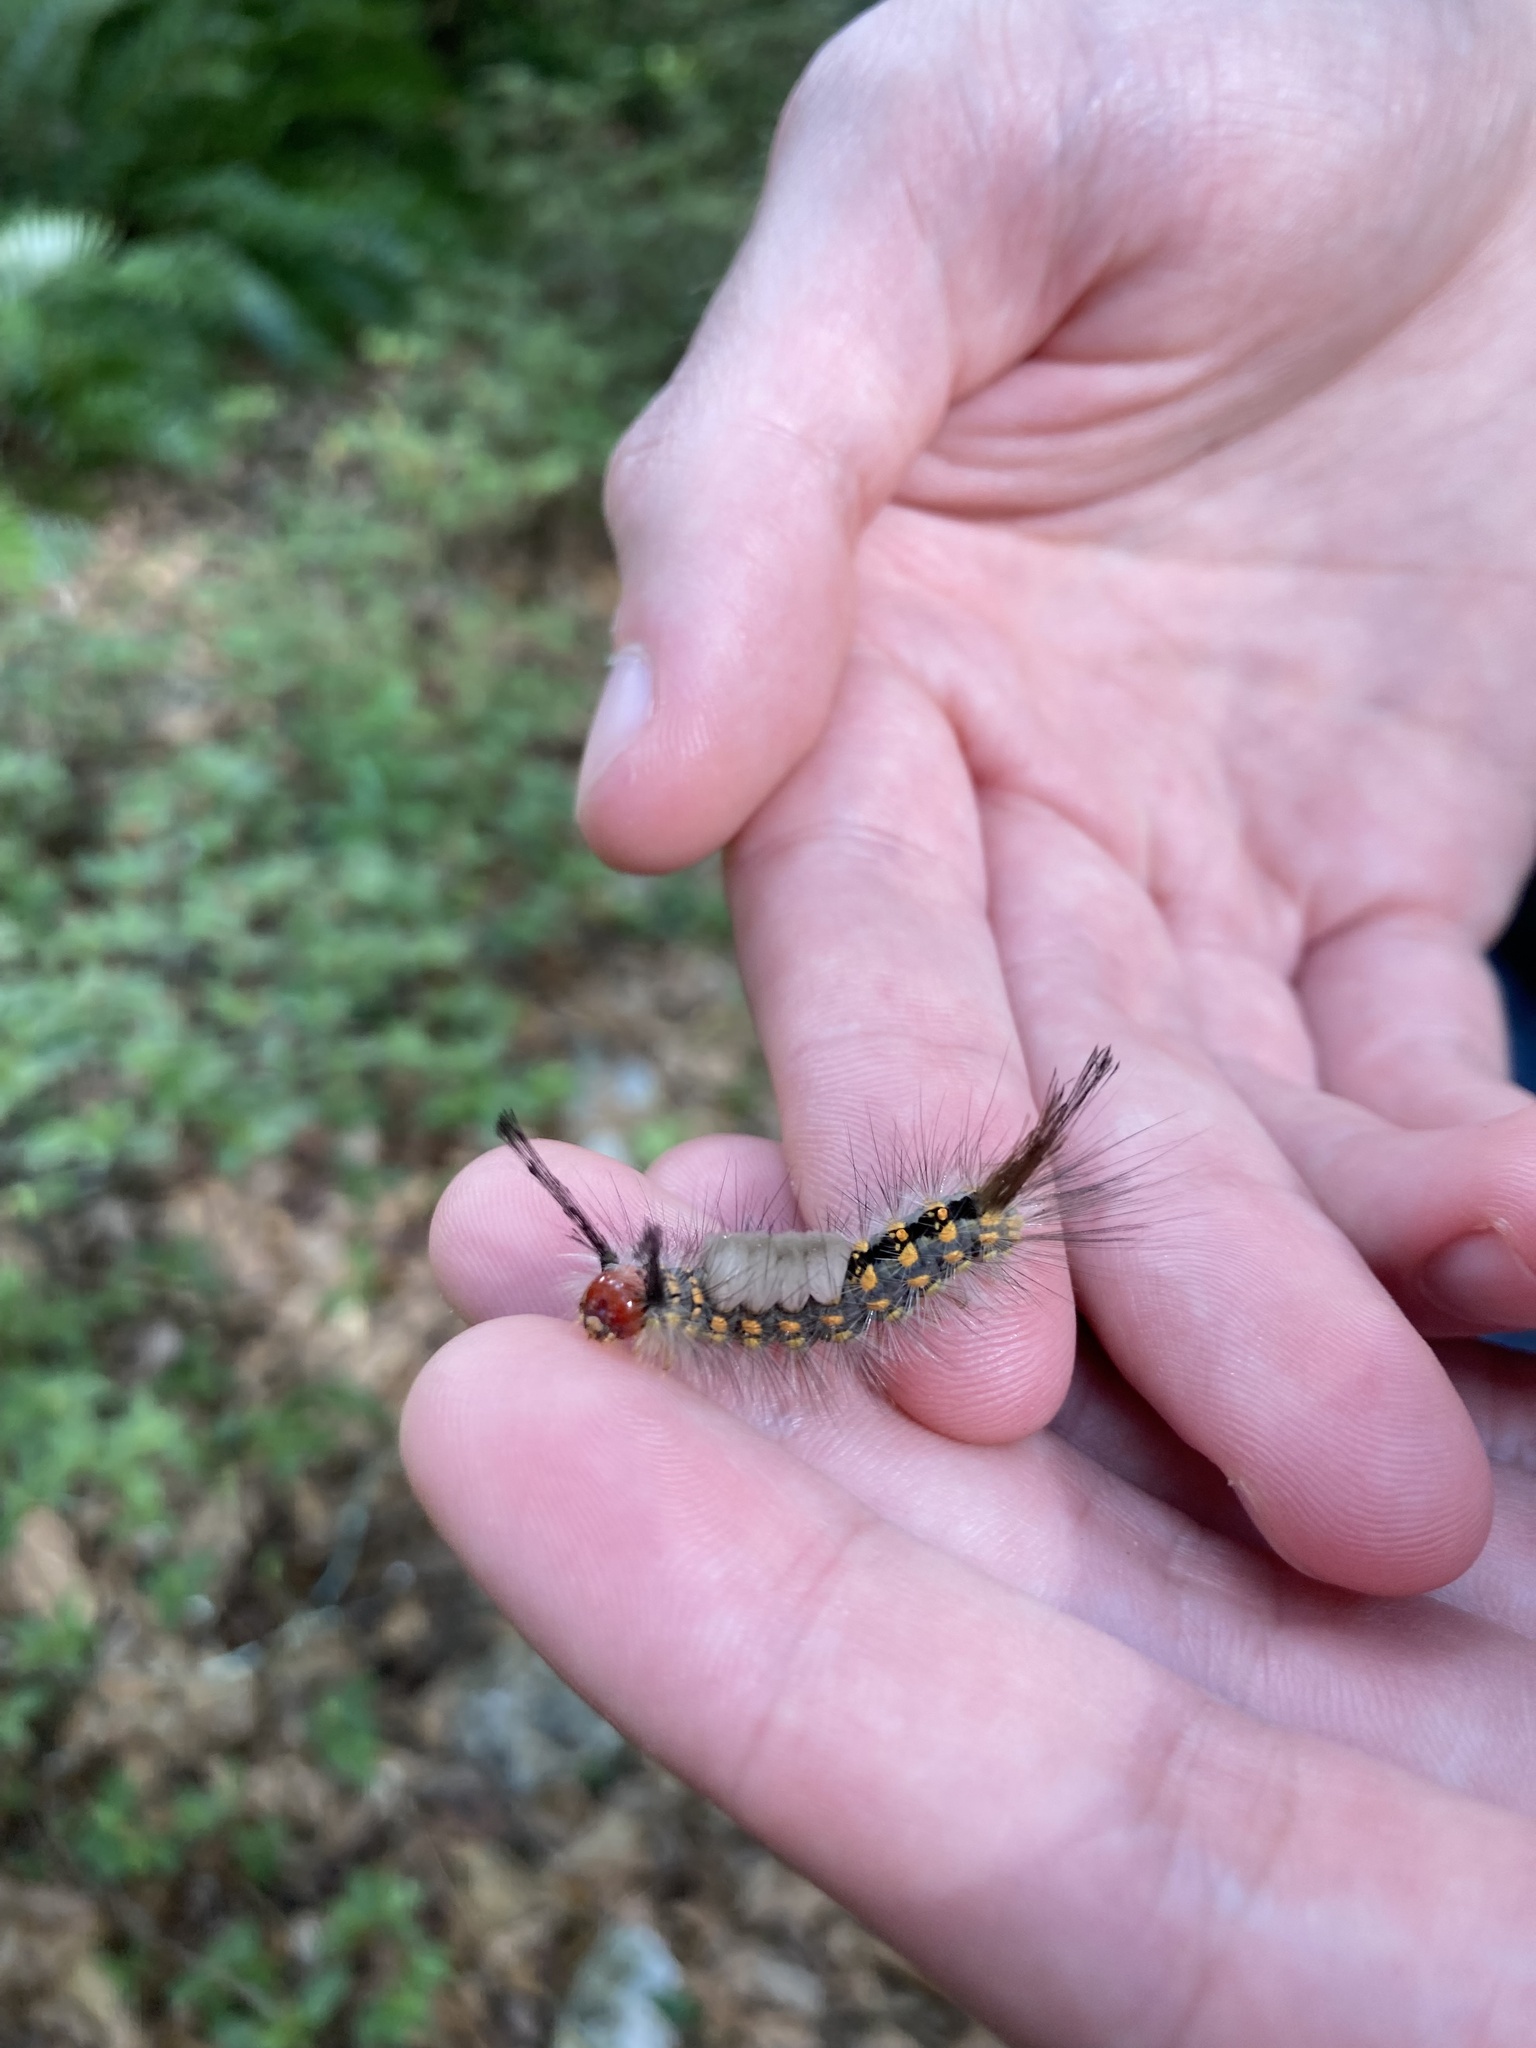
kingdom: Animalia
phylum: Arthropoda
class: Insecta
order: Lepidoptera
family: Erebidae
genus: Orgyia
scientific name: Orgyia detrita
